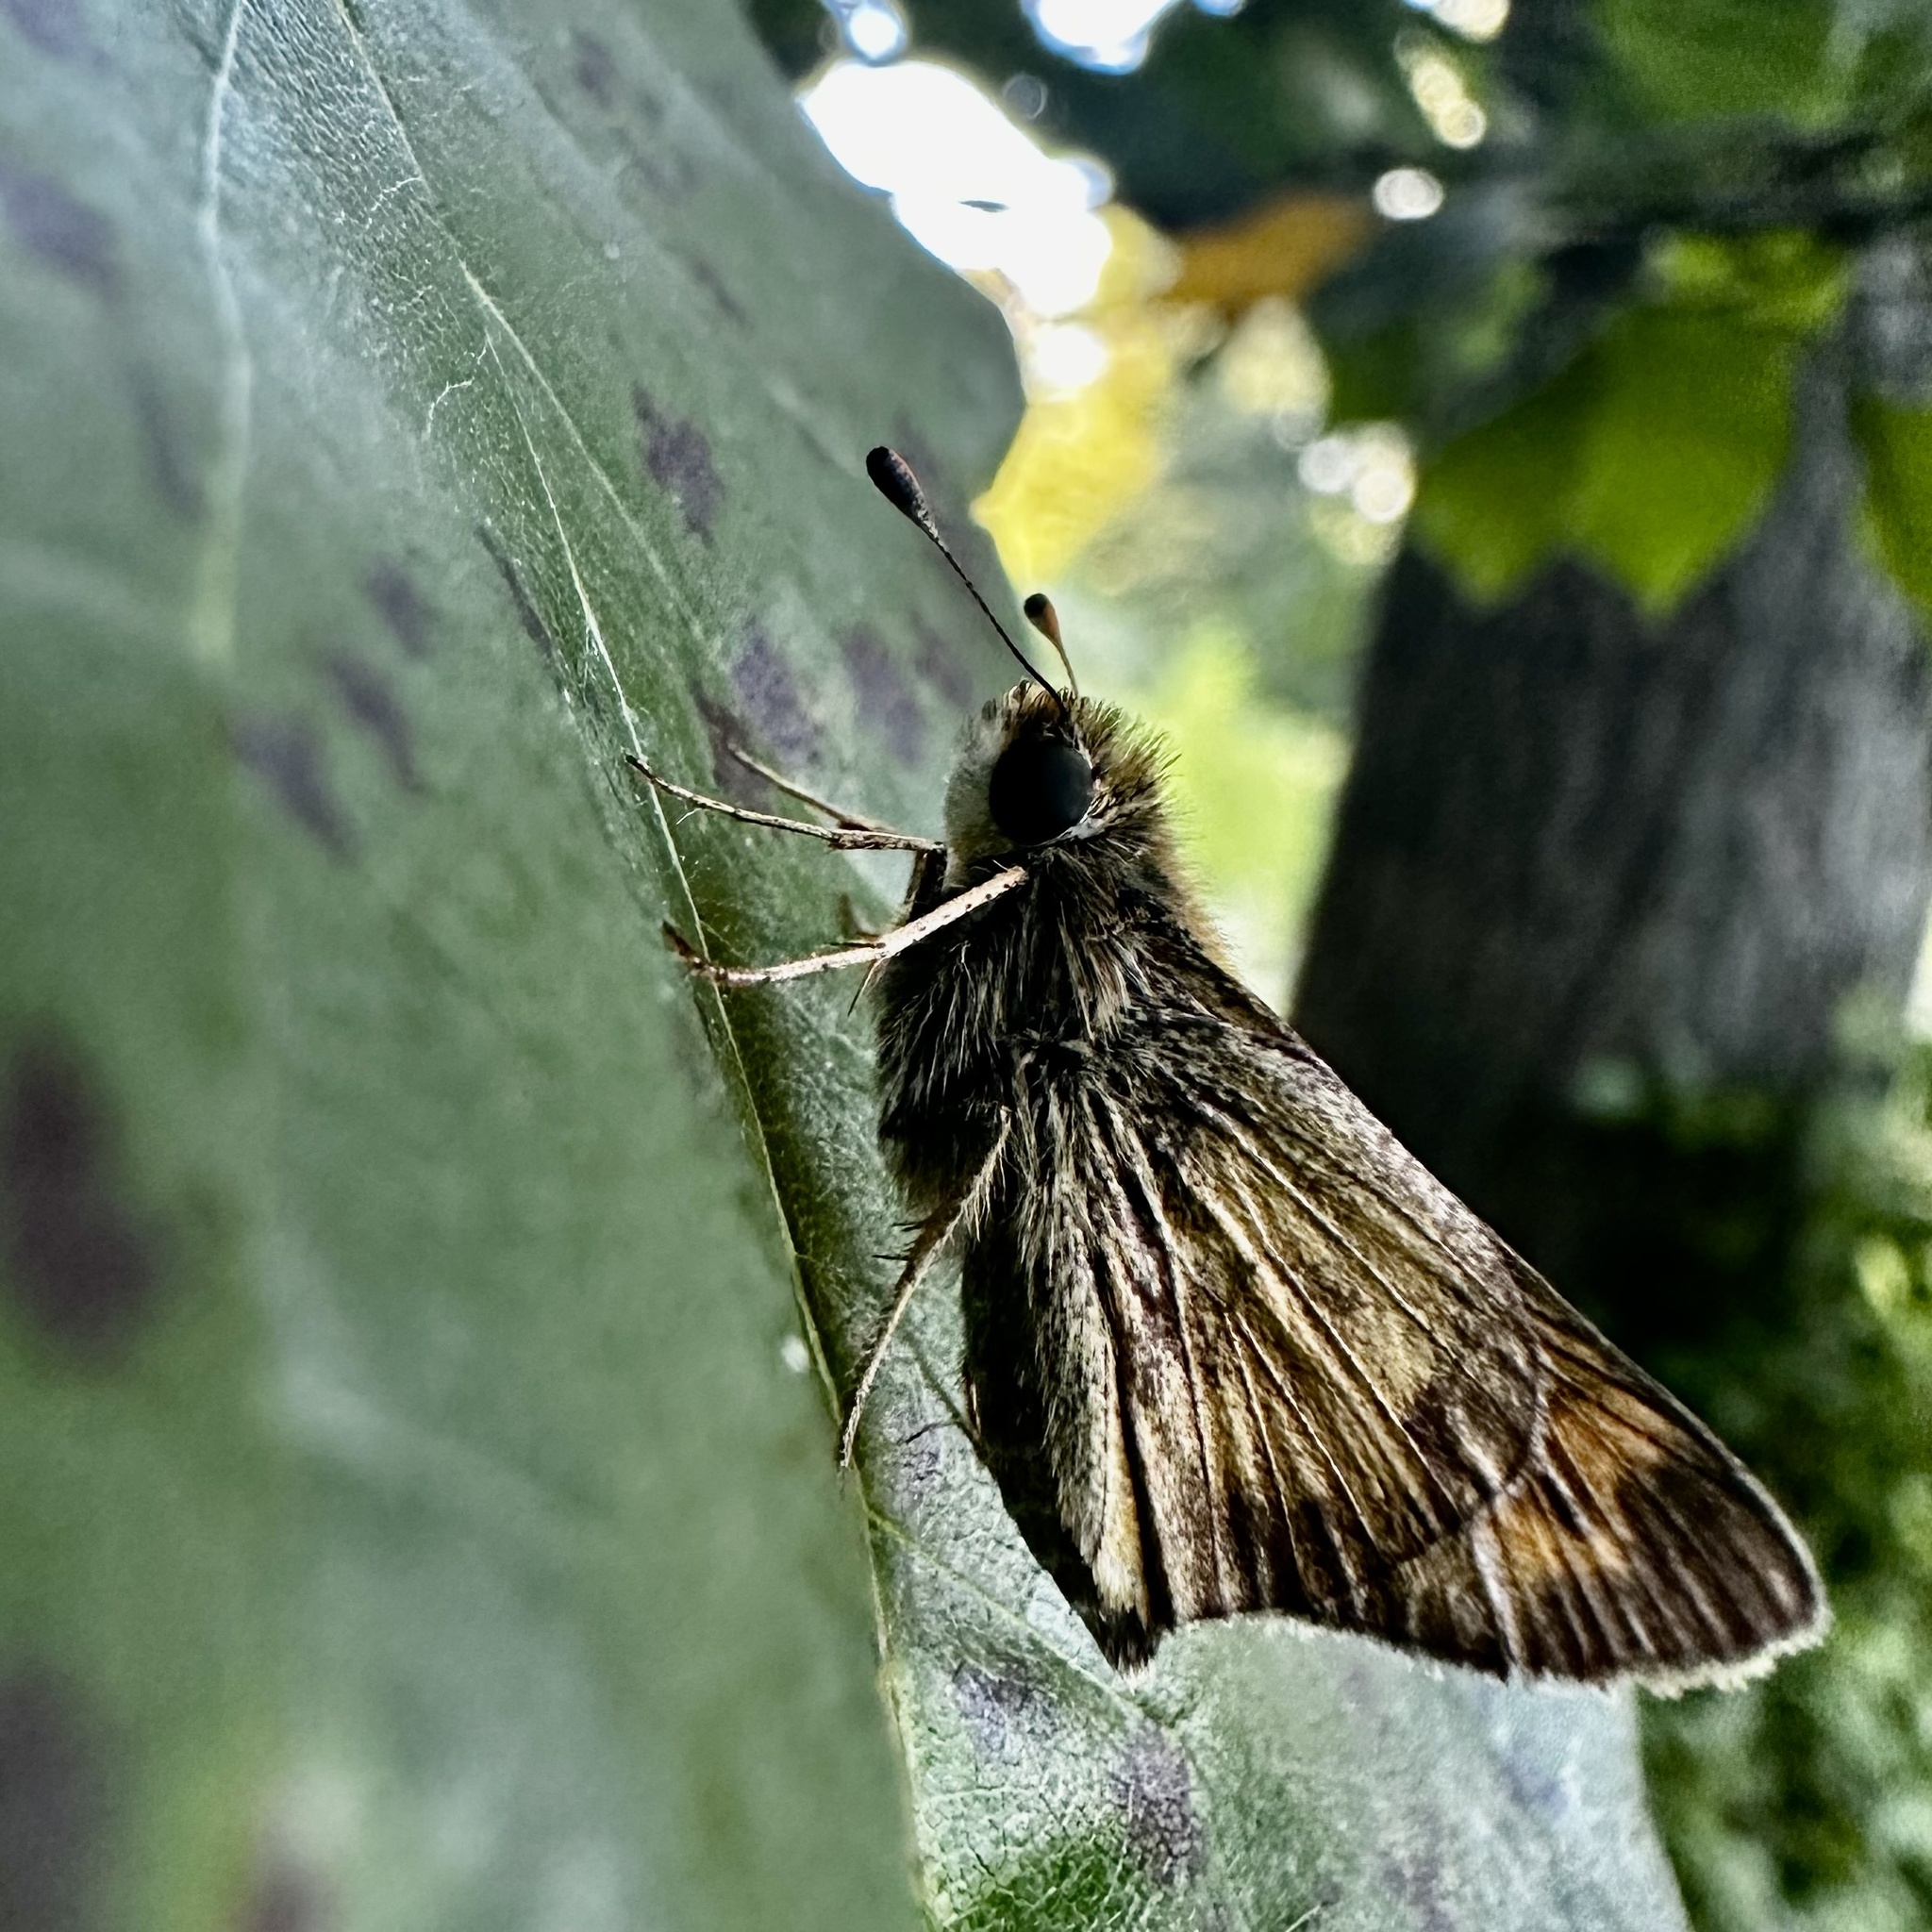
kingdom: Animalia
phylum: Arthropoda
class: Insecta
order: Lepidoptera
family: Hesperiidae
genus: Atalopedes
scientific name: Atalopedes
